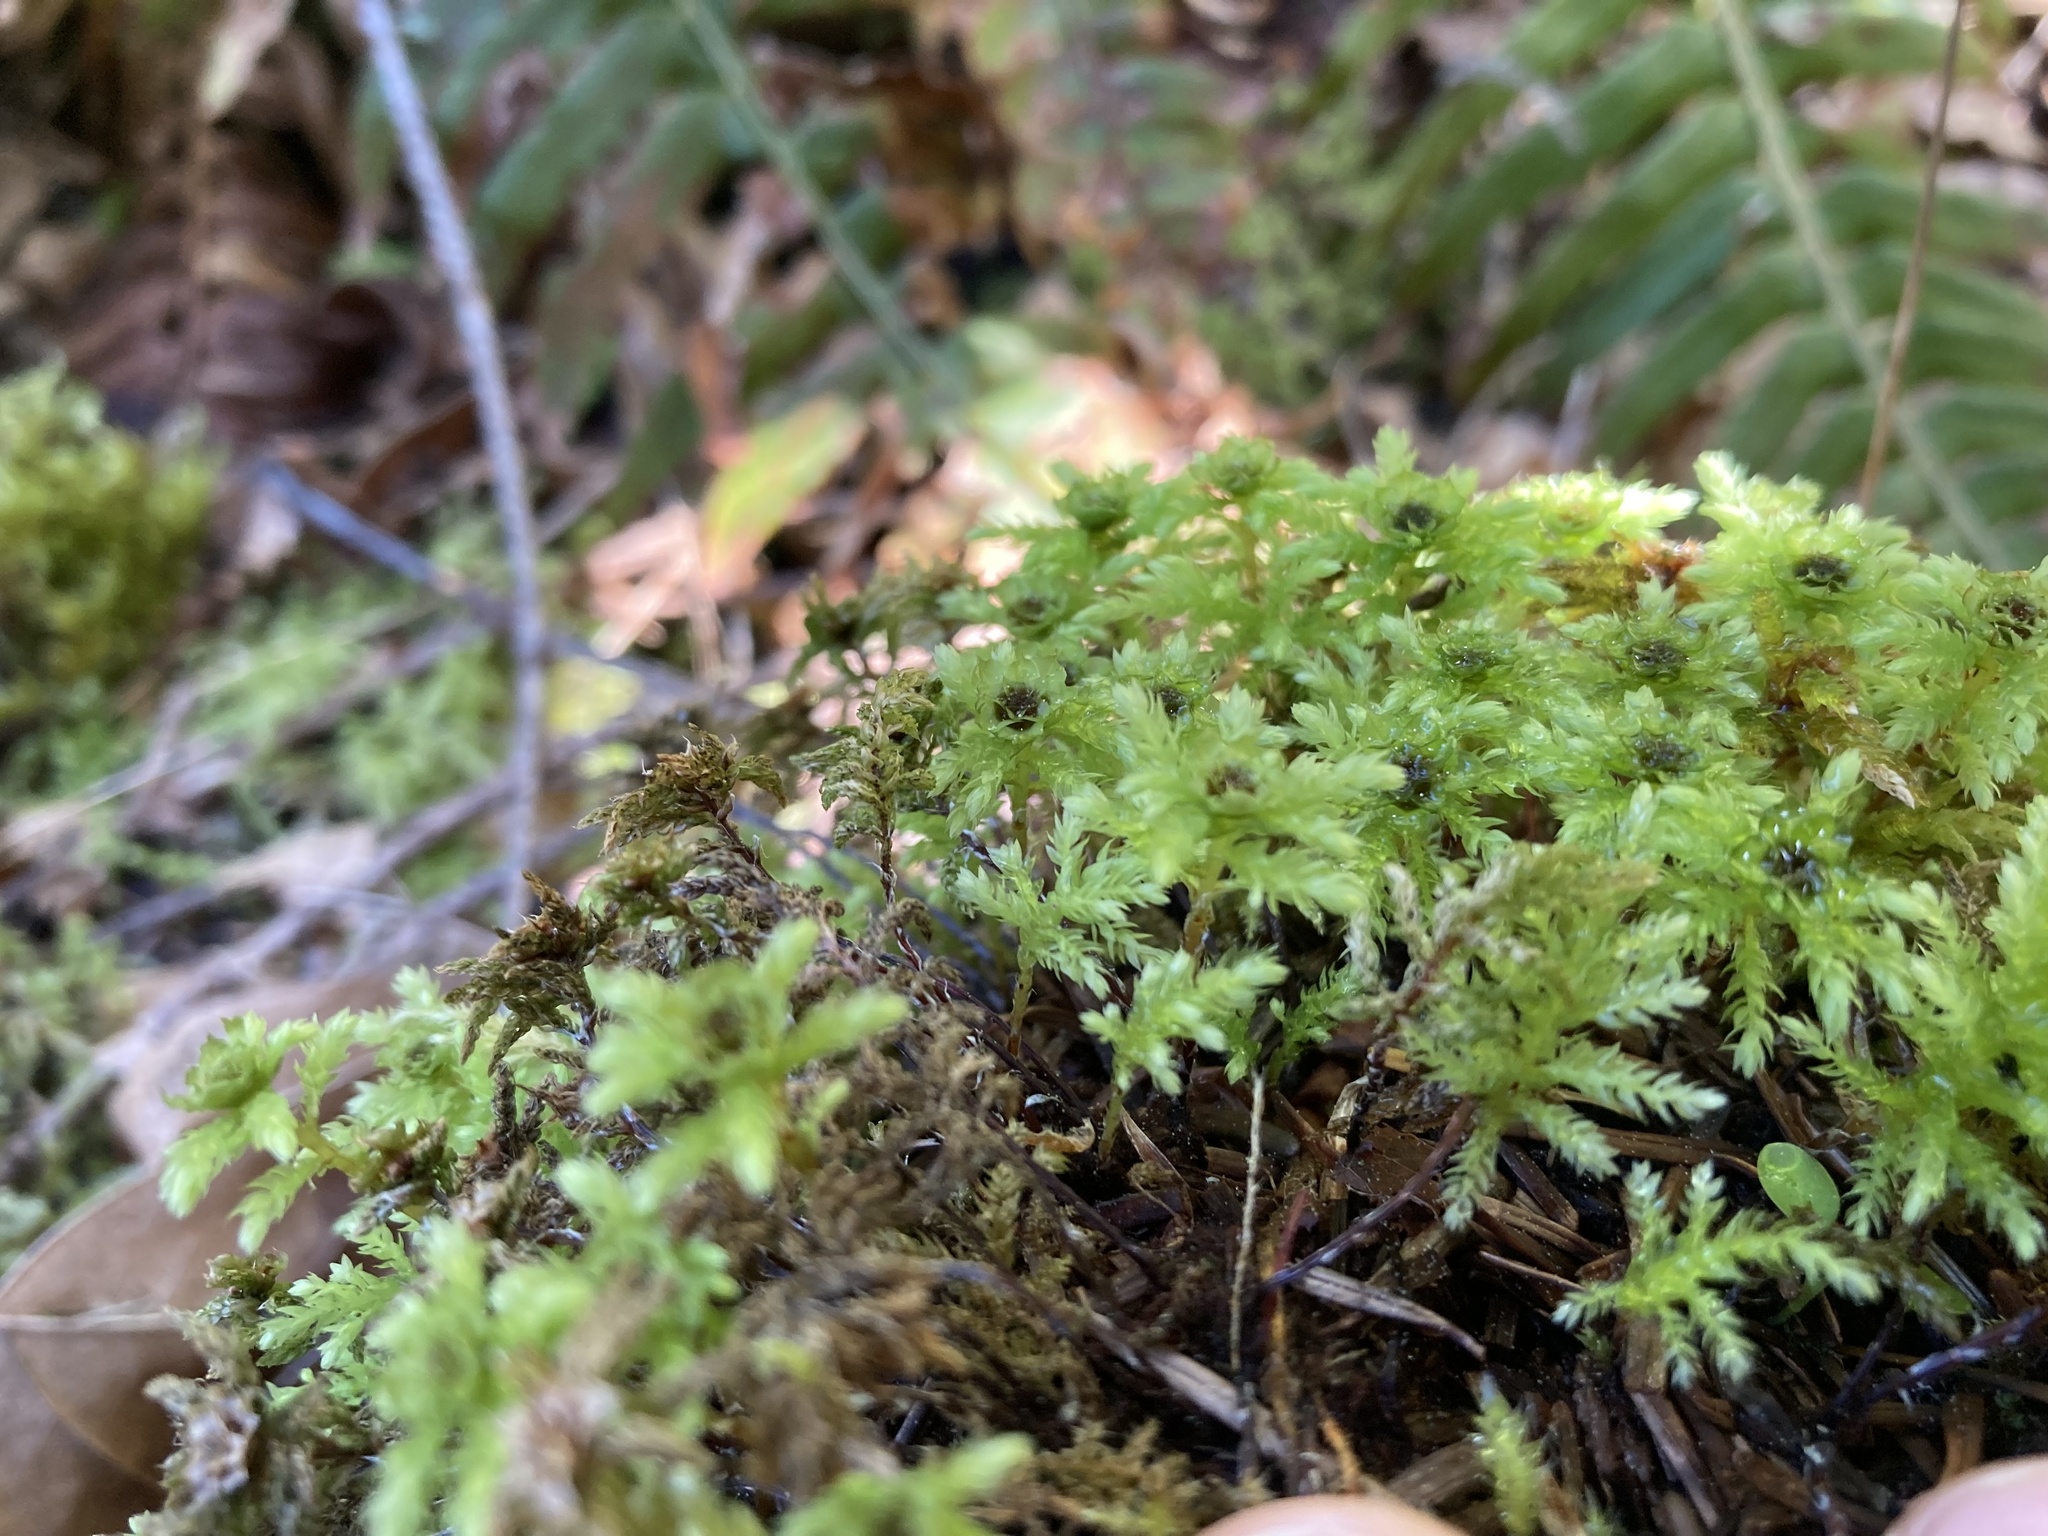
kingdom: Plantae
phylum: Bryophyta
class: Bryopsida
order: Bryales
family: Mniaceae
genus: Leucolepis
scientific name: Leucolepis acanthoneura
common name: Leucolepis umbrella moss
